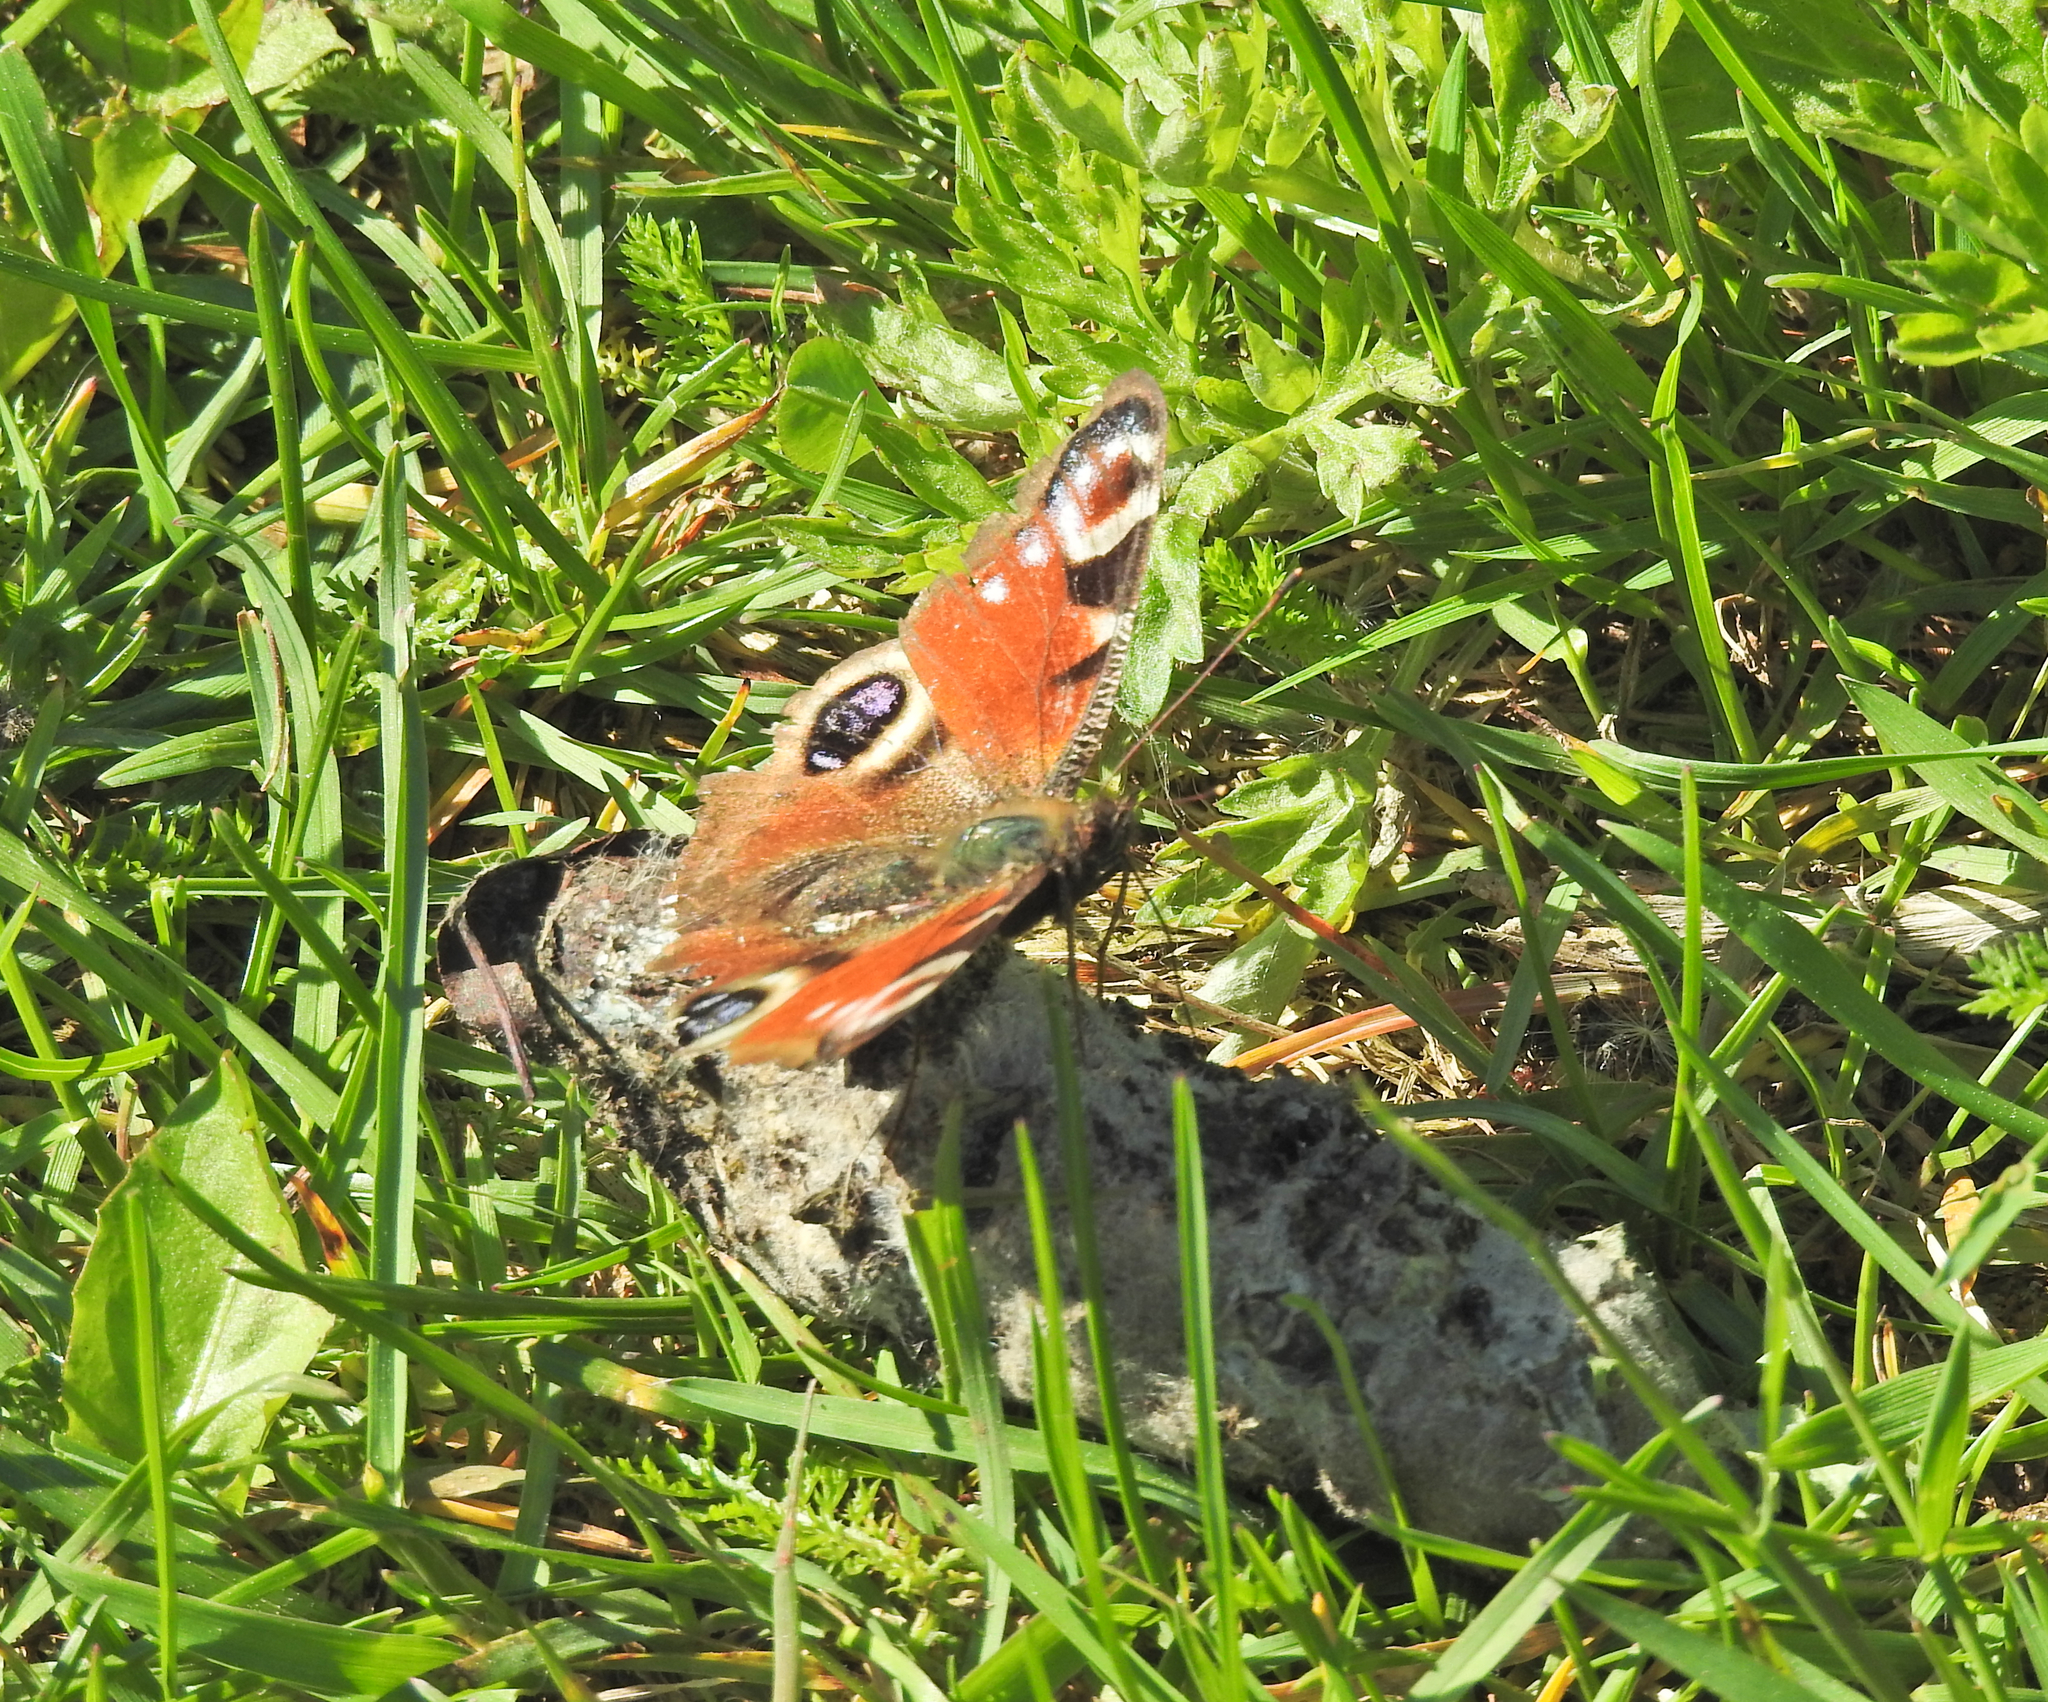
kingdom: Animalia
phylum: Arthropoda
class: Insecta
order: Lepidoptera
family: Nymphalidae
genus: Aglais
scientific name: Aglais io
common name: Peacock
